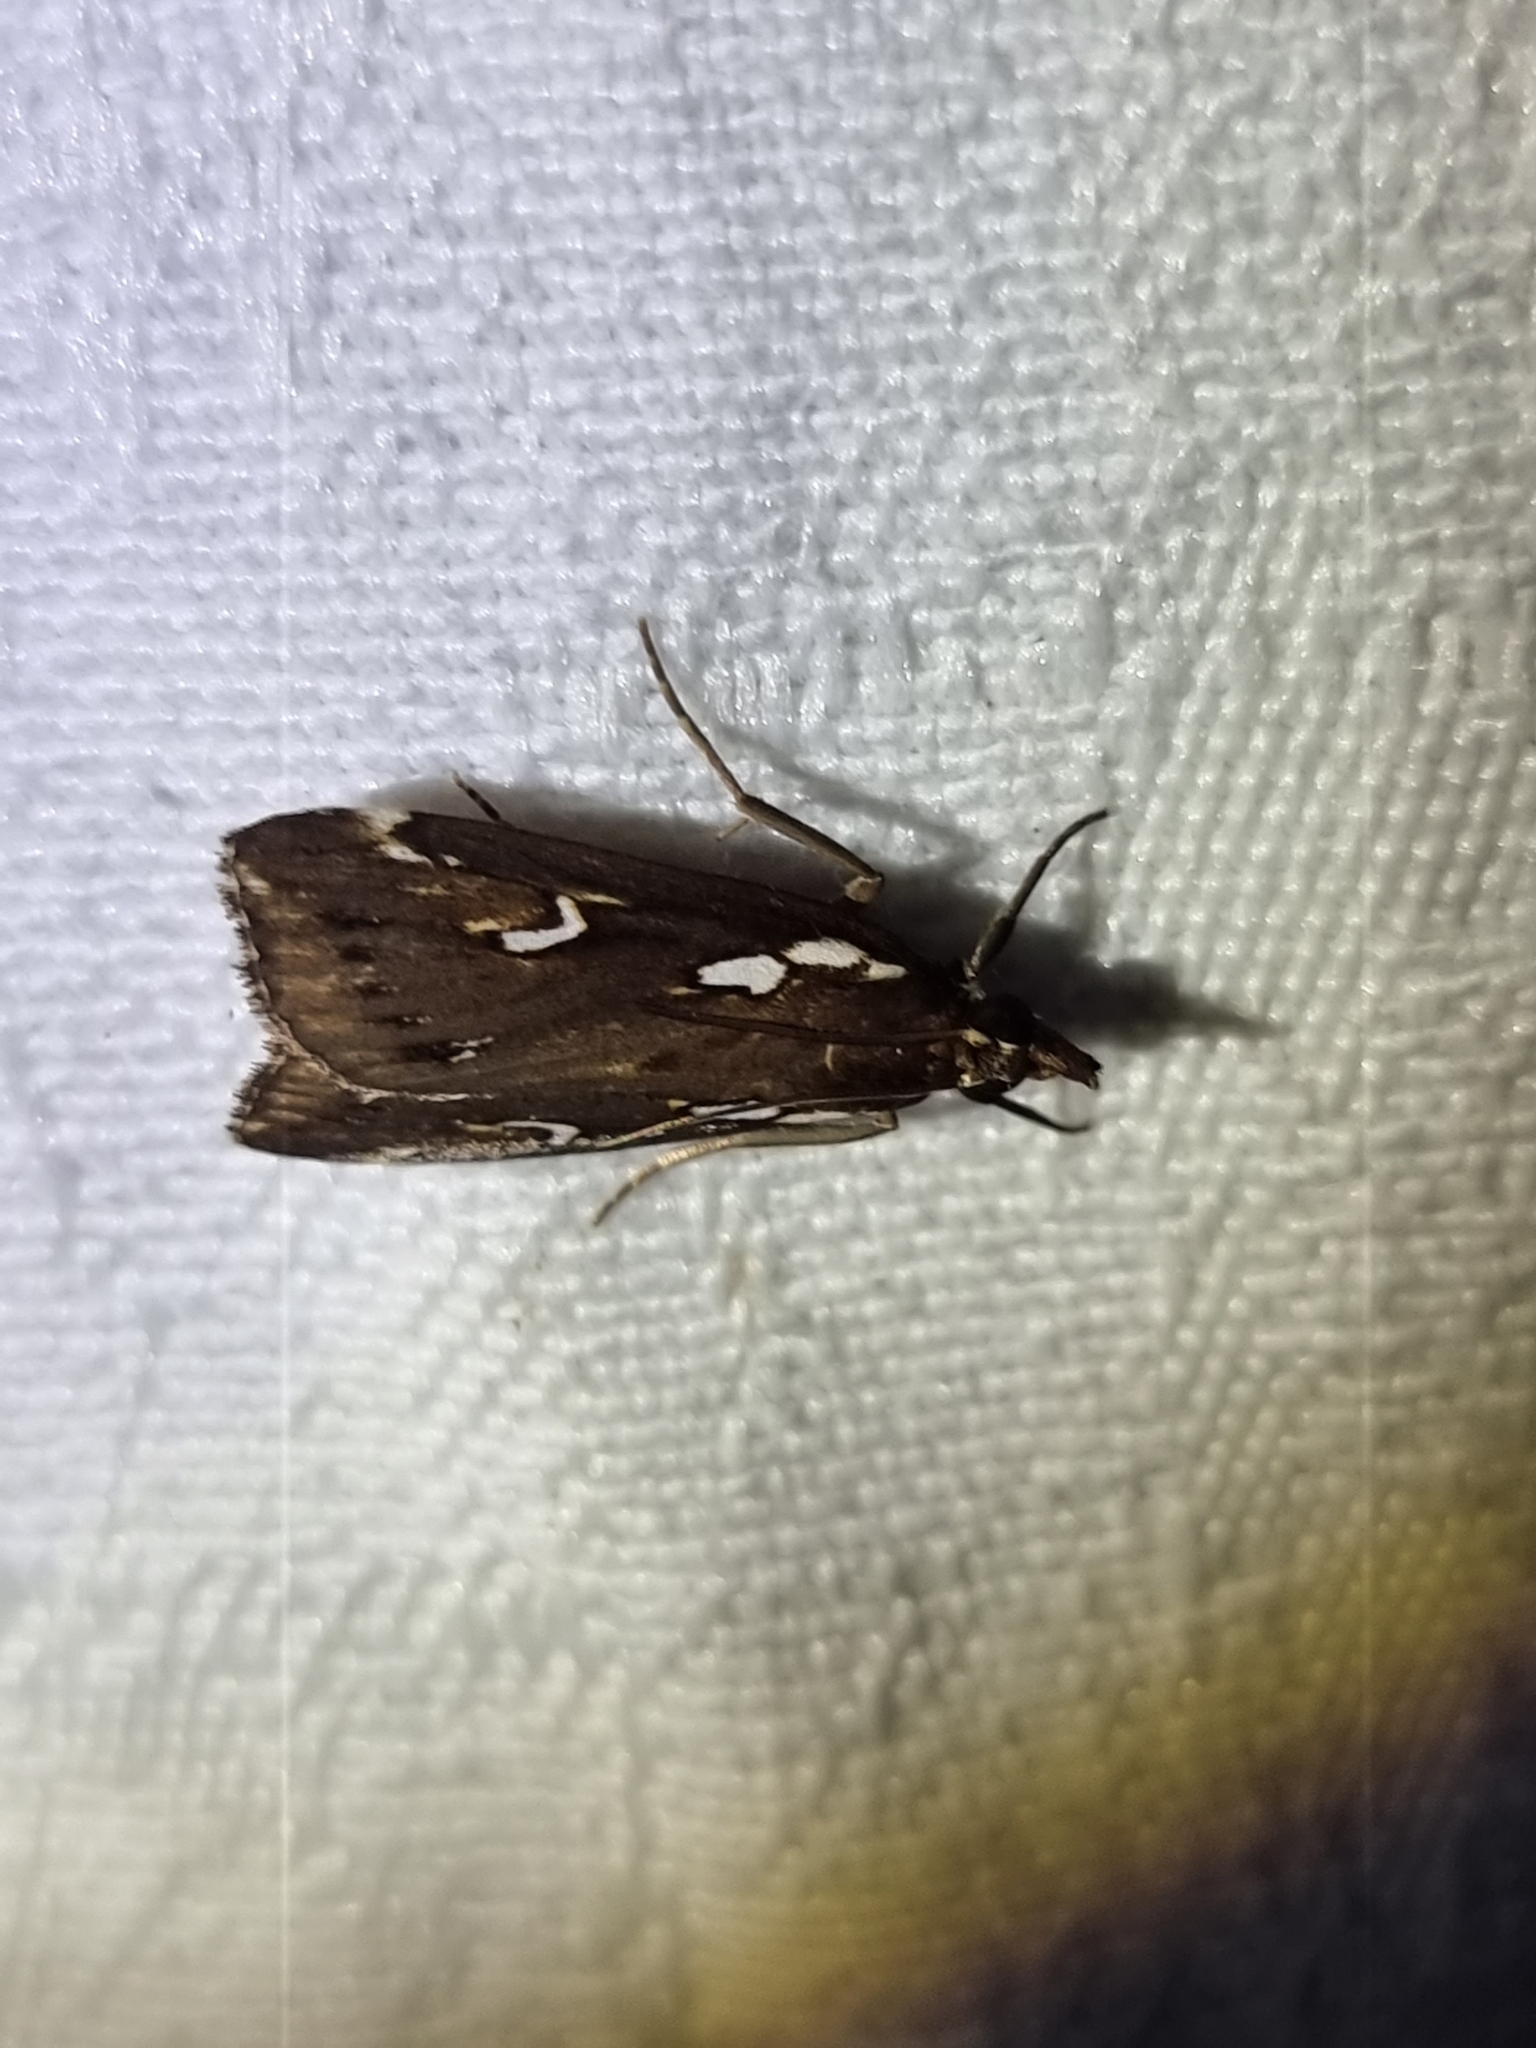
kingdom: Animalia
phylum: Arthropoda
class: Insecta
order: Lepidoptera
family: Crambidae
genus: Perimeceta
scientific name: Perimeceta niphotypa
